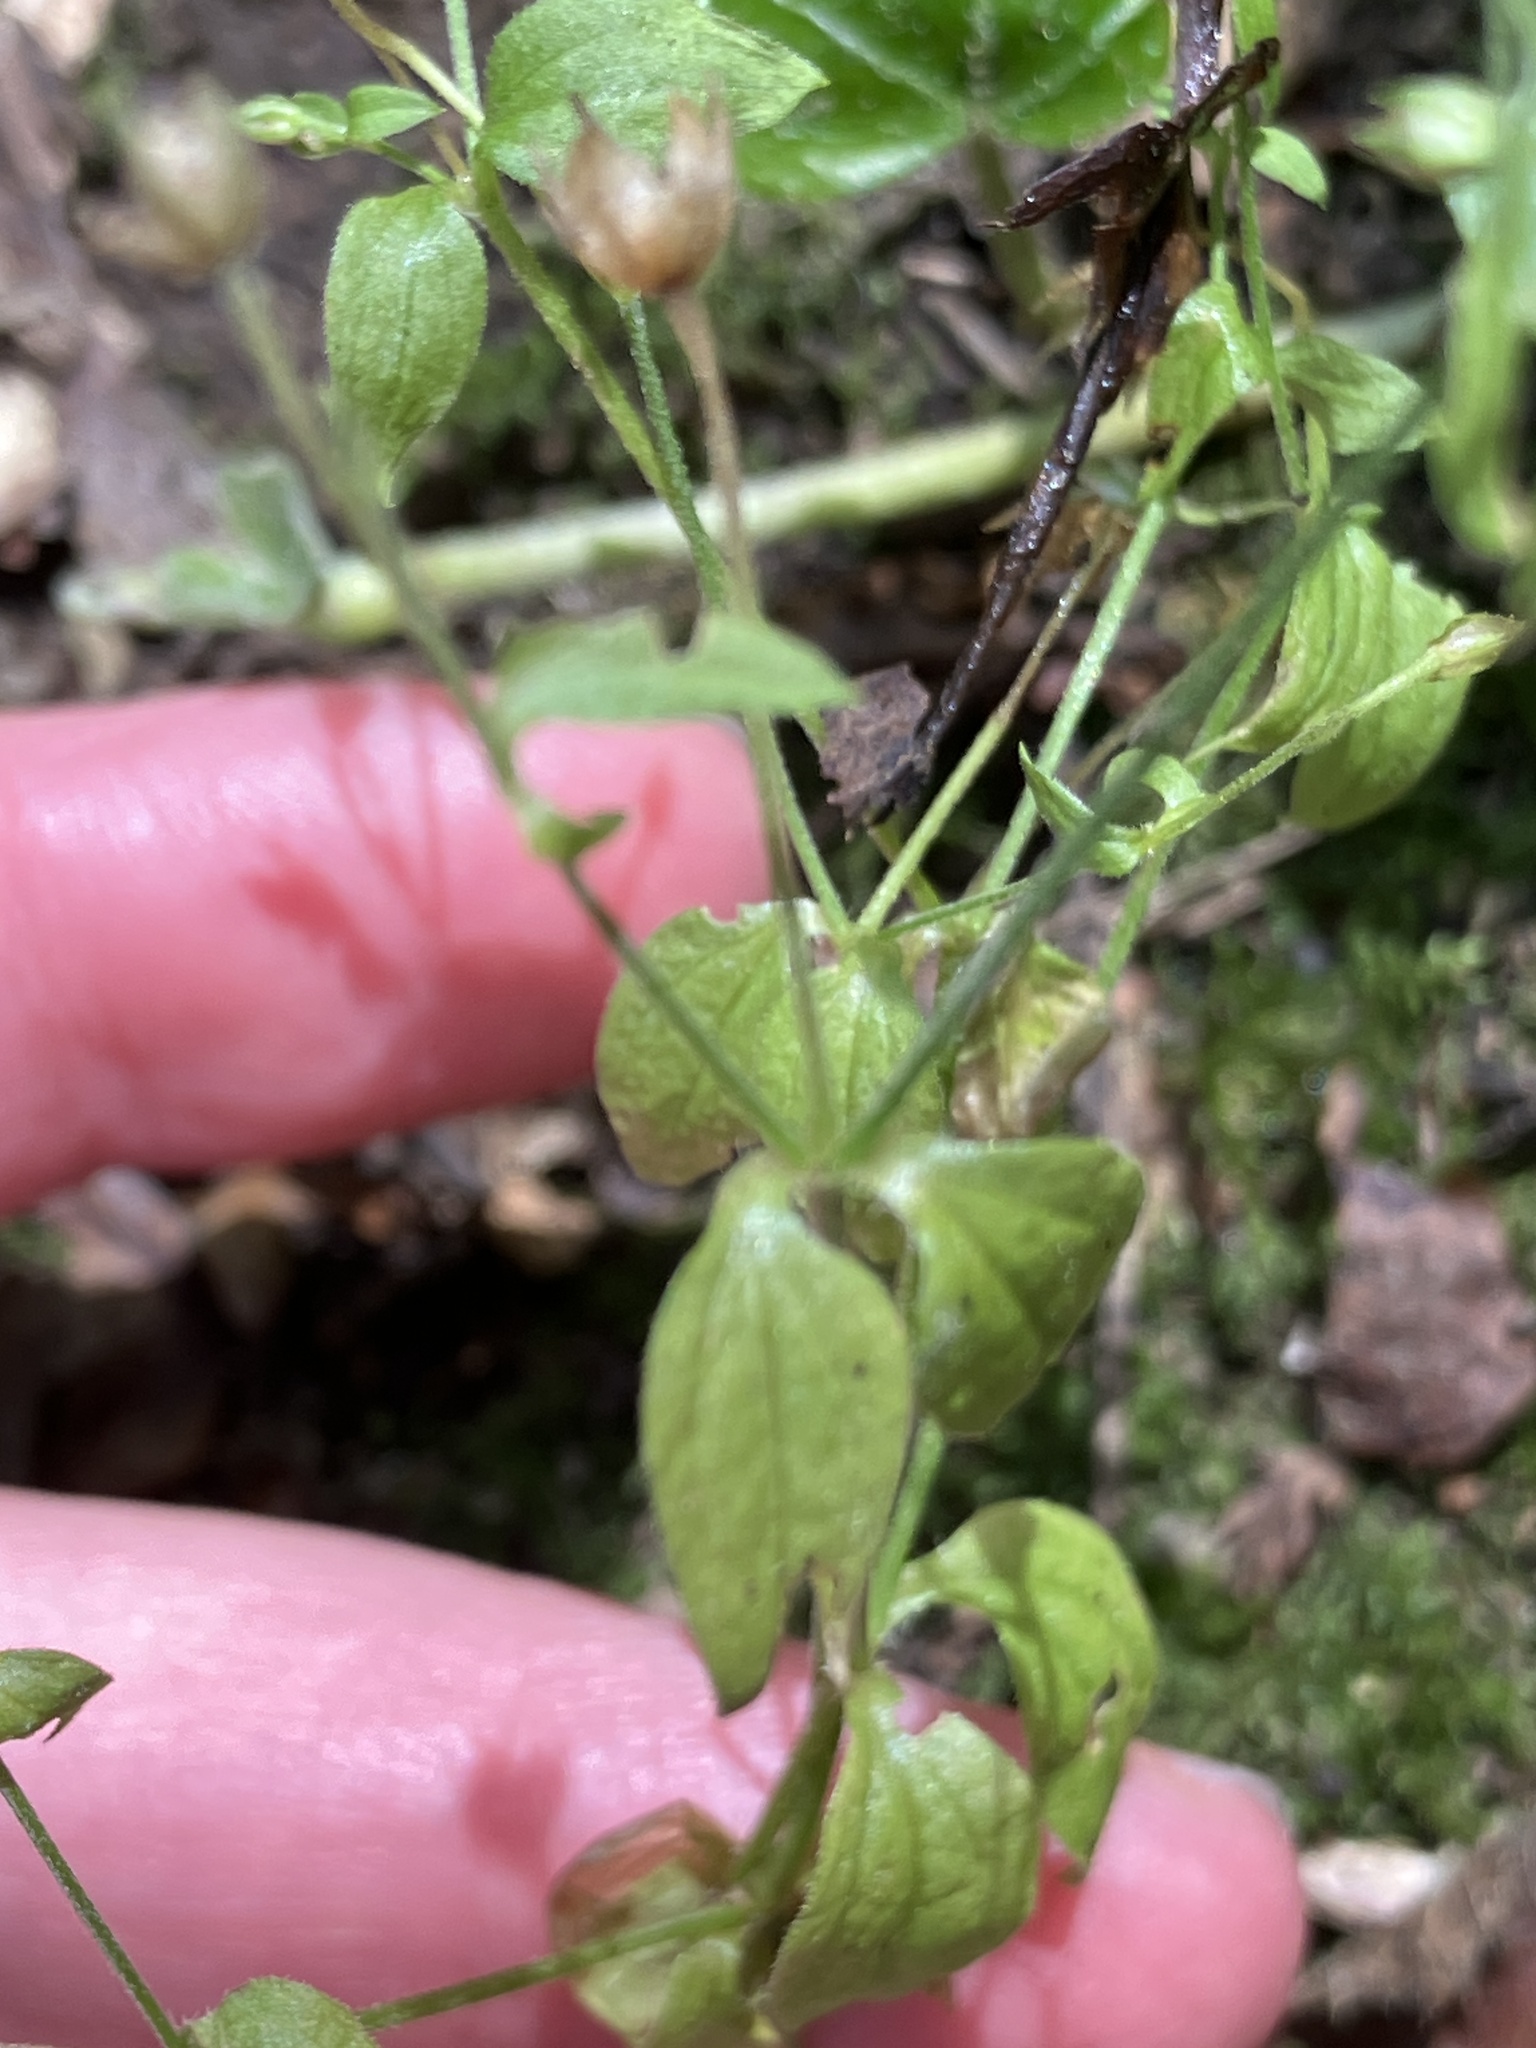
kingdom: Plantae
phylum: Tracheophyta
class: Magnoliopsida
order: Caryophyllales
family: Caryophyllaceae
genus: Moehringia
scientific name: Moehringia trinervia
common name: Three-nerved sandwort
